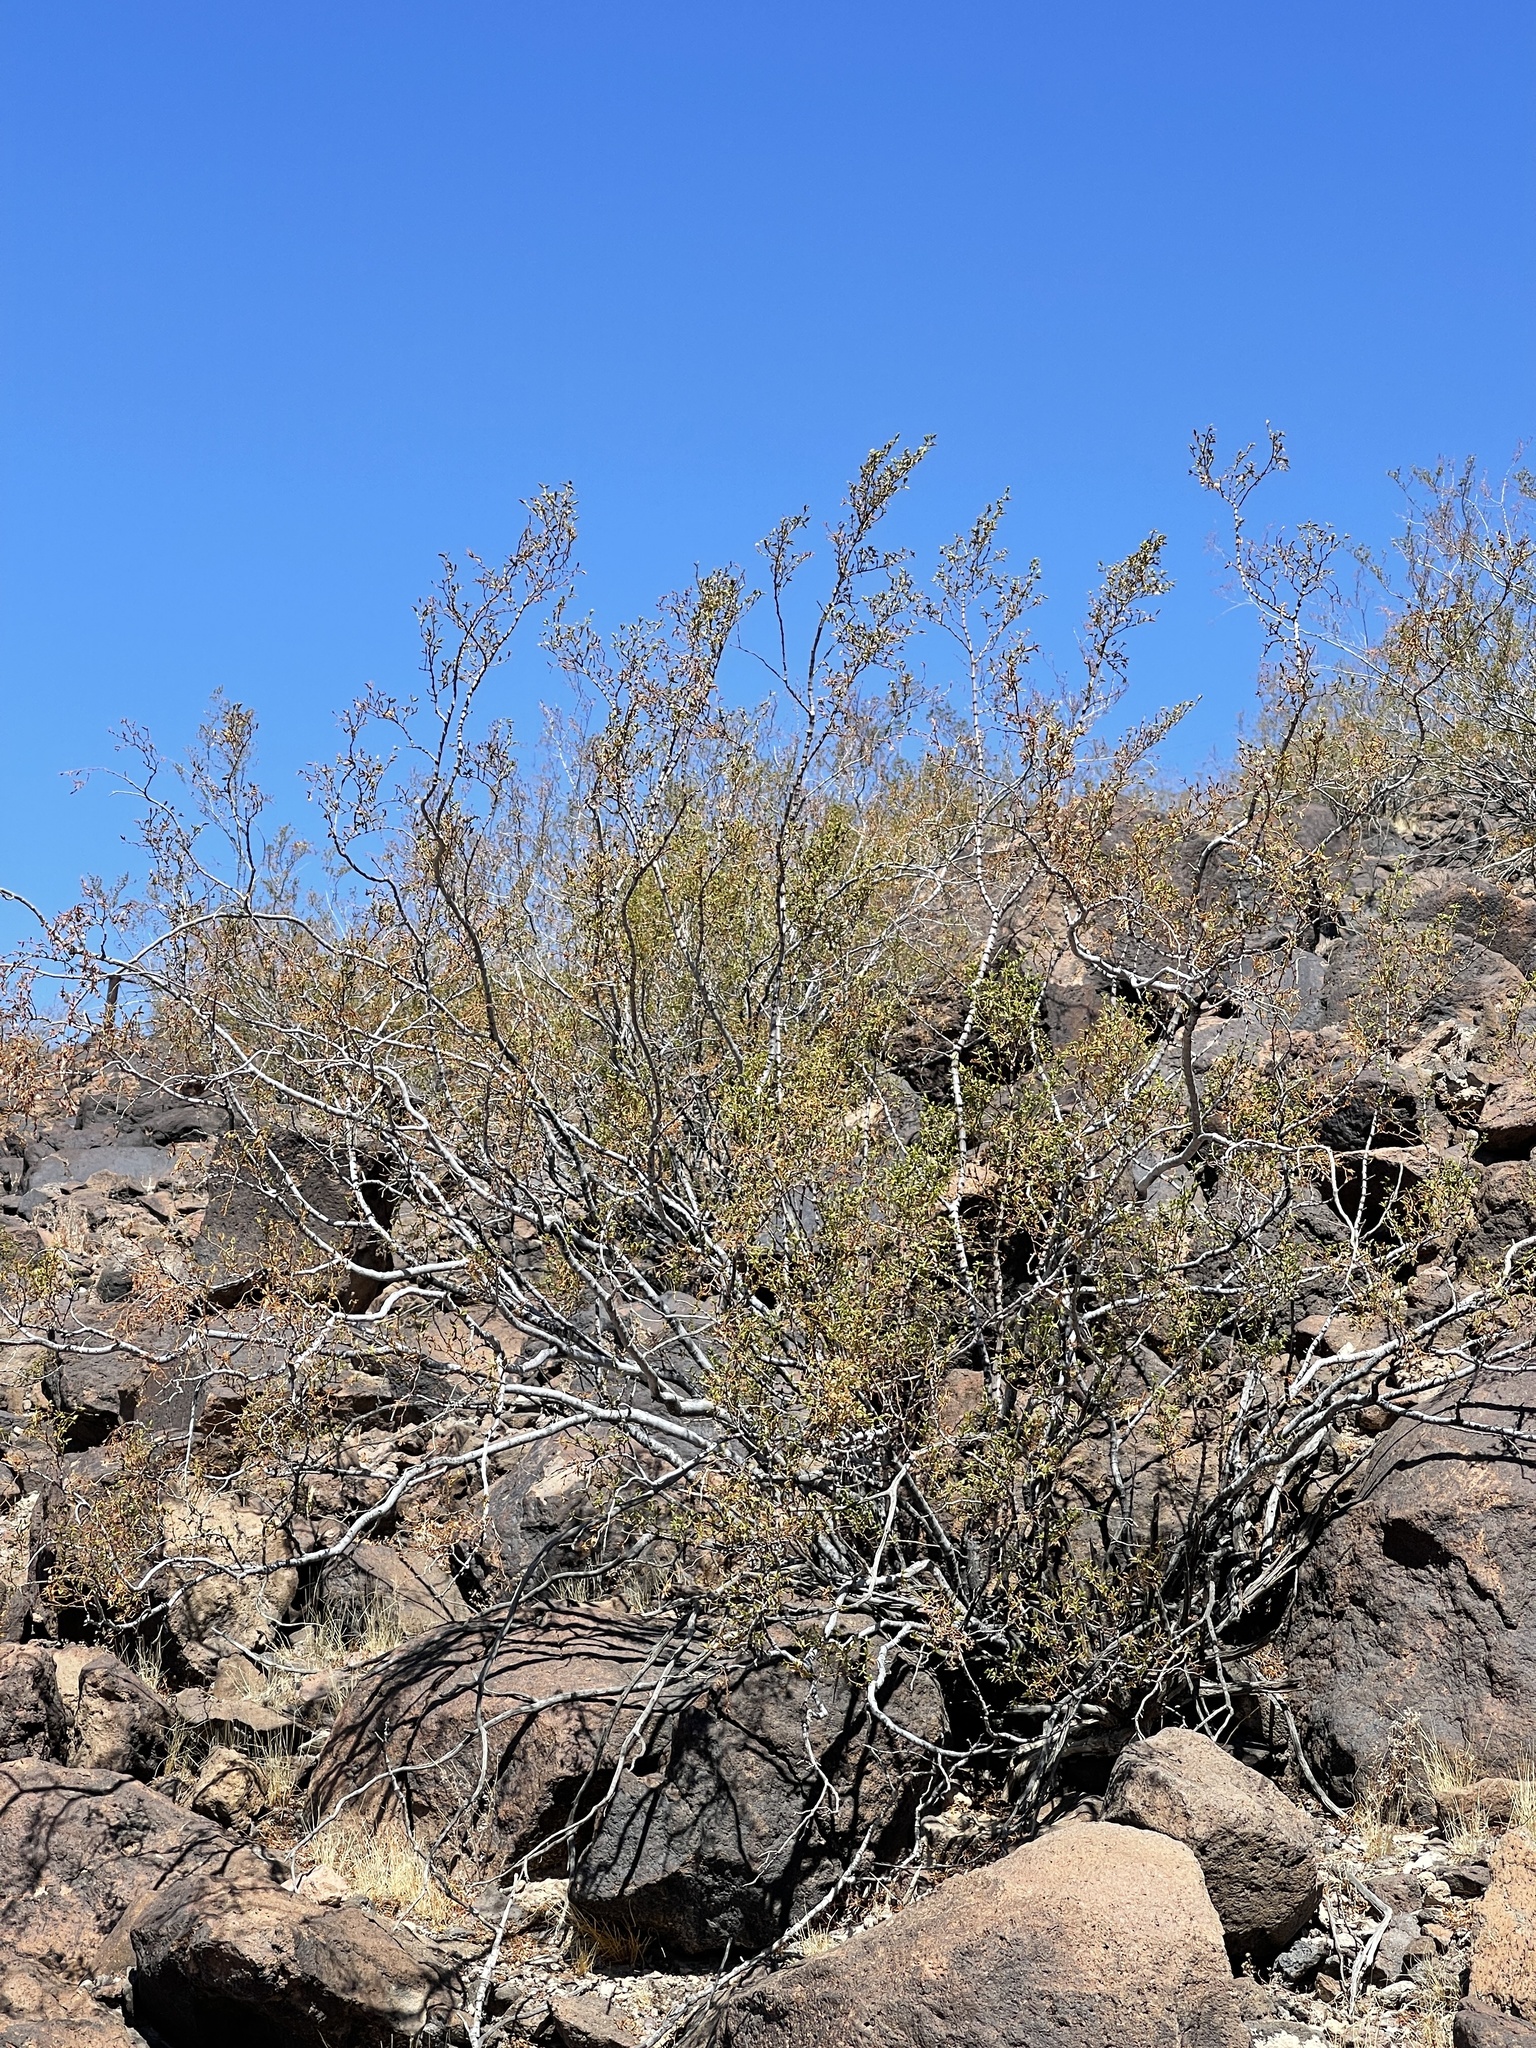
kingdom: Plantae
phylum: Tracheophyta
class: Magnoliopsida
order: Zygophyllales
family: Zygophyllaceae
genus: Larrea
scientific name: Larrea tridentata
